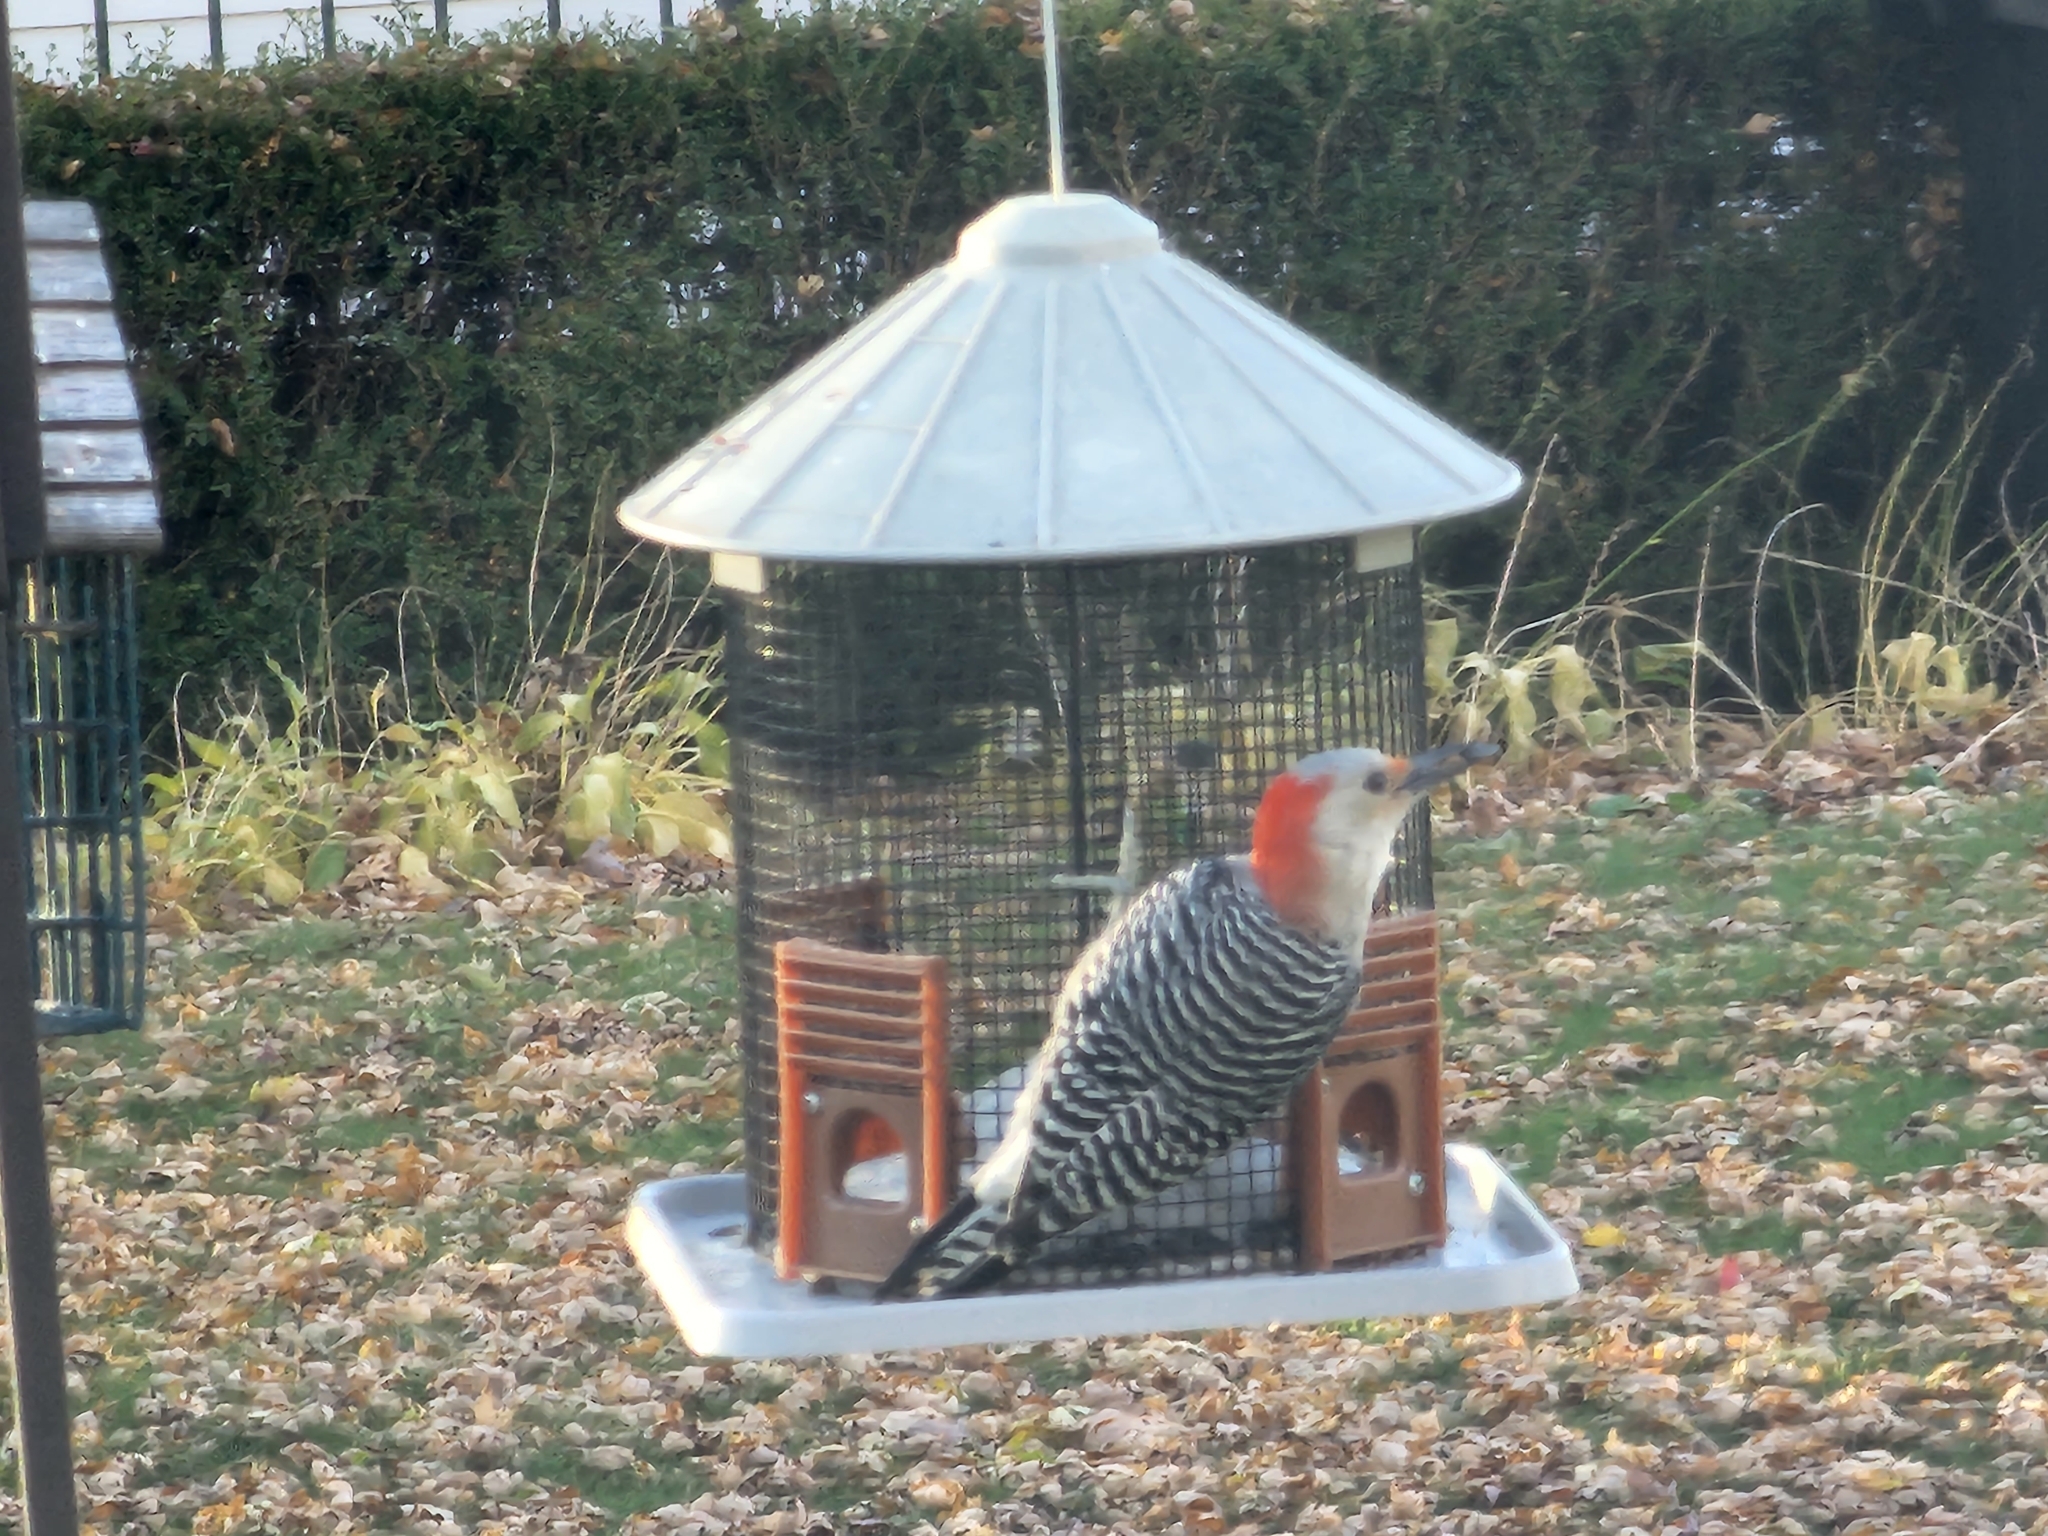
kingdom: Animalia
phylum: Chordata
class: Aves
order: Piciformes
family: Picidae
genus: Melanerpes
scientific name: Melanerpes carolinus
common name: Red-bellied woodpecker
